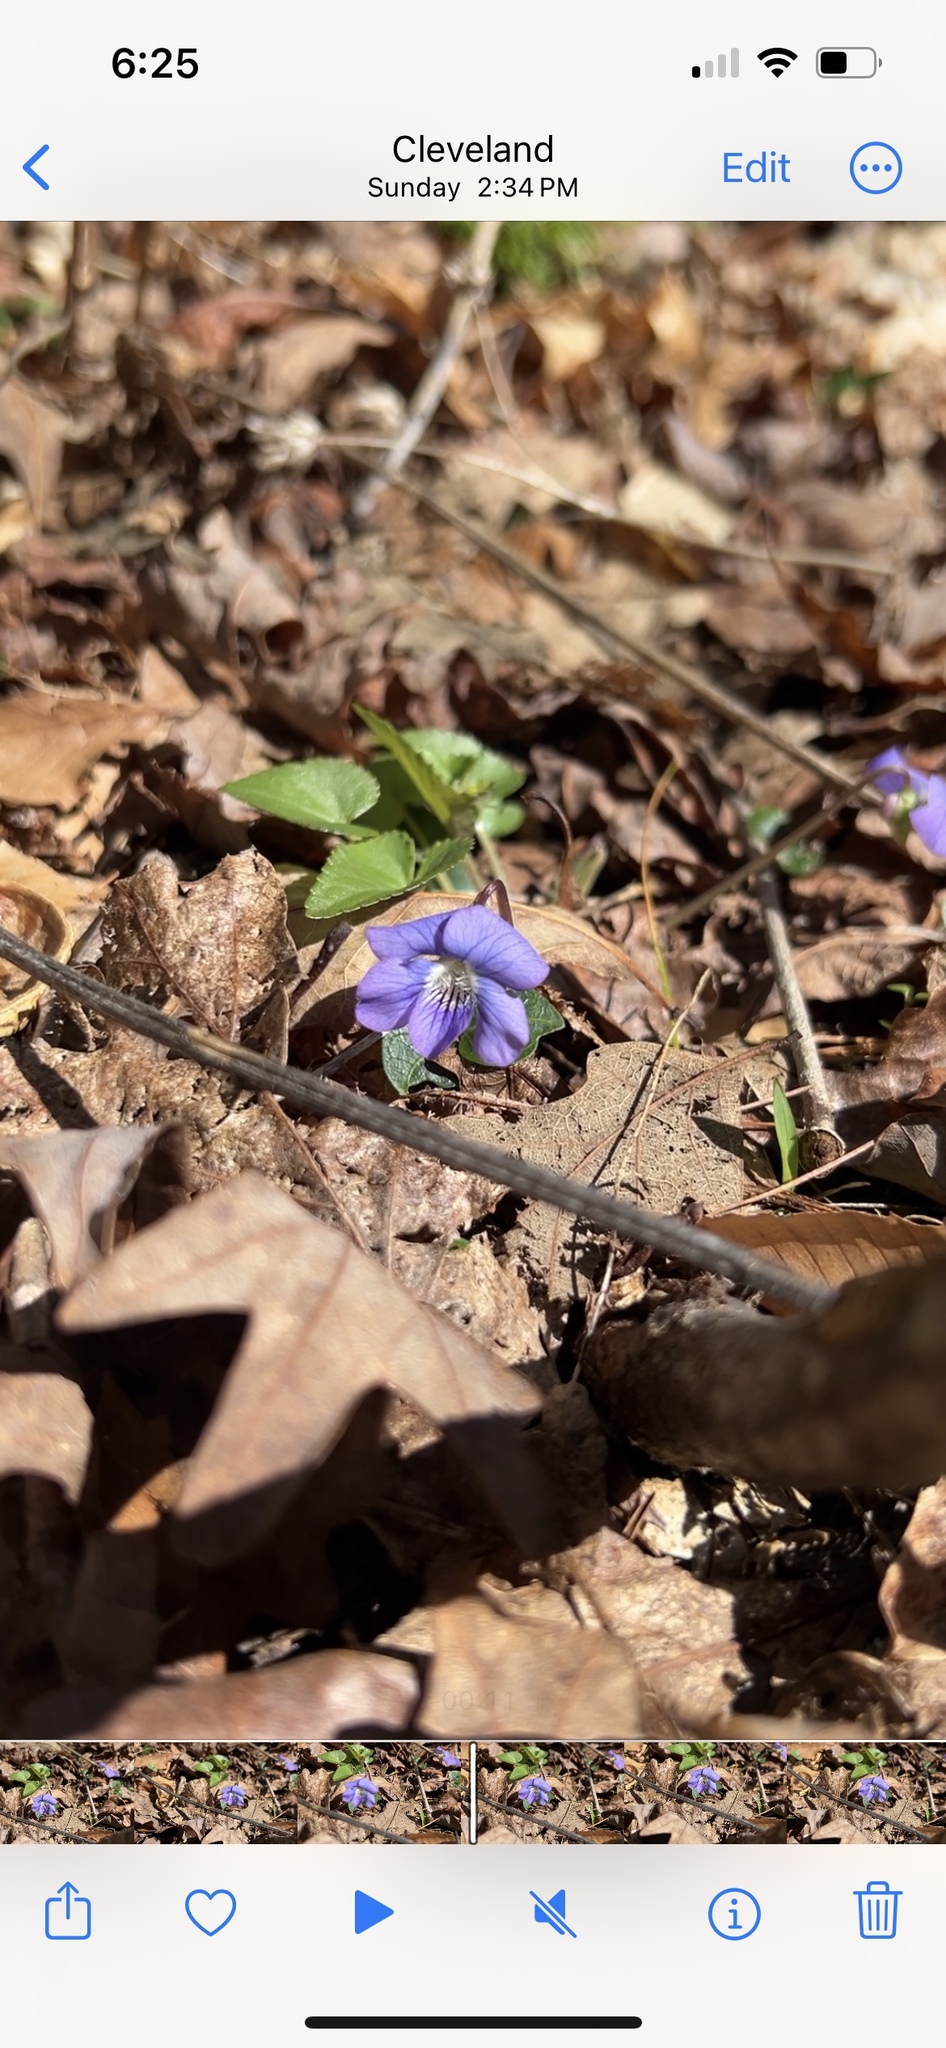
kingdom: Plantae
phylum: Tracheophyta
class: Magnoliopsida
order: Malpighiales
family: Violaceae
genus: Viola
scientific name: Viola sororia
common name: Dooryard violet
